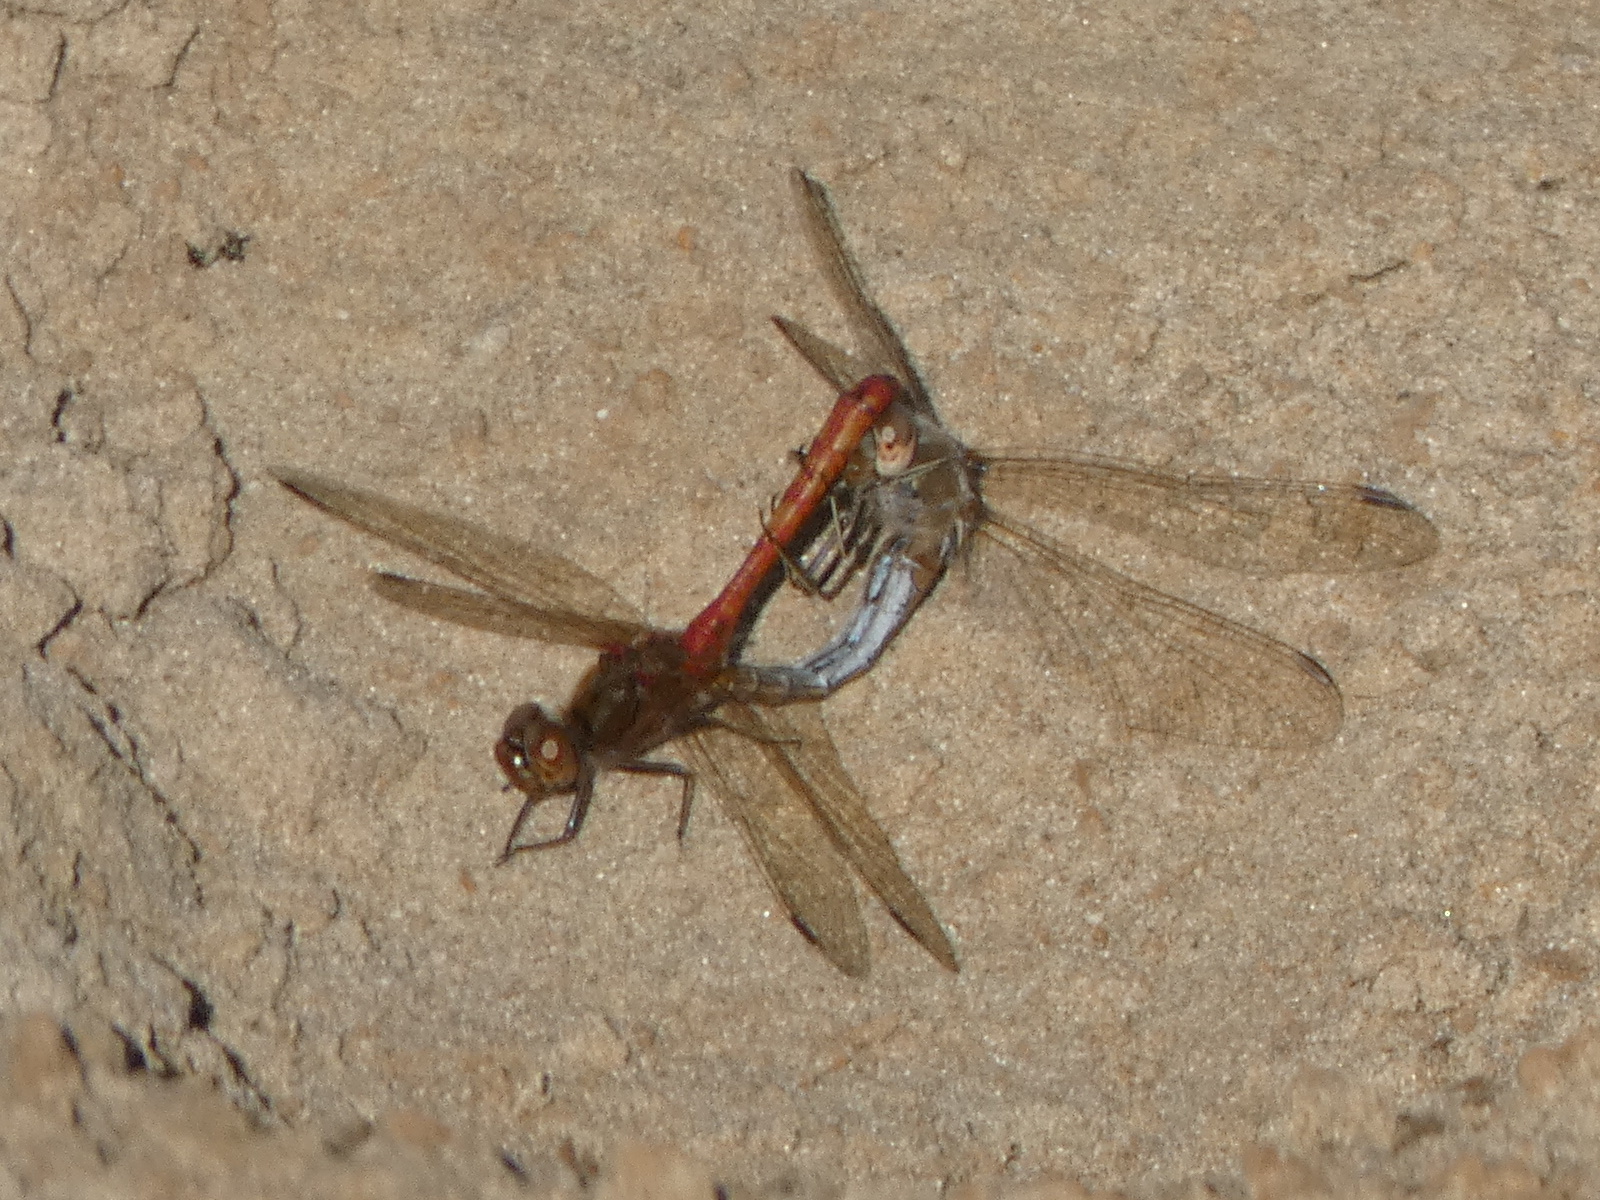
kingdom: Animalia
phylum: Arthropoda
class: Insecta
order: Odonata
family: Libellulidae
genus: Sympetrum
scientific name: Sympetrum vulgatum
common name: Vagrant darter
